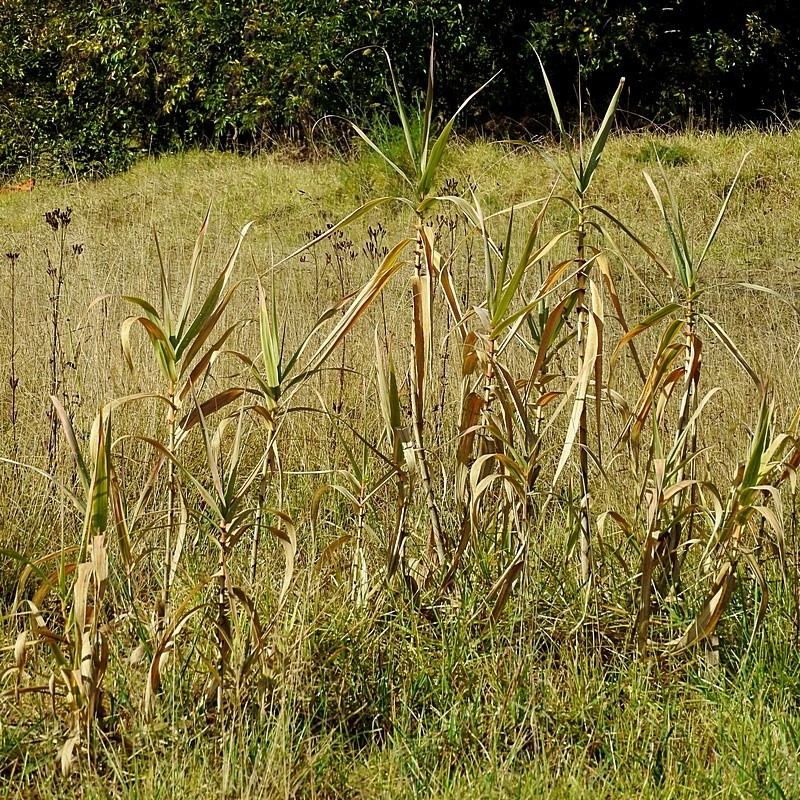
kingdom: Plantae
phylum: Tracheophyta
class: Liliopsida
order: Poales
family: Poaceae
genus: Arundo
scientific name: Arundo donax
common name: Giant reed
